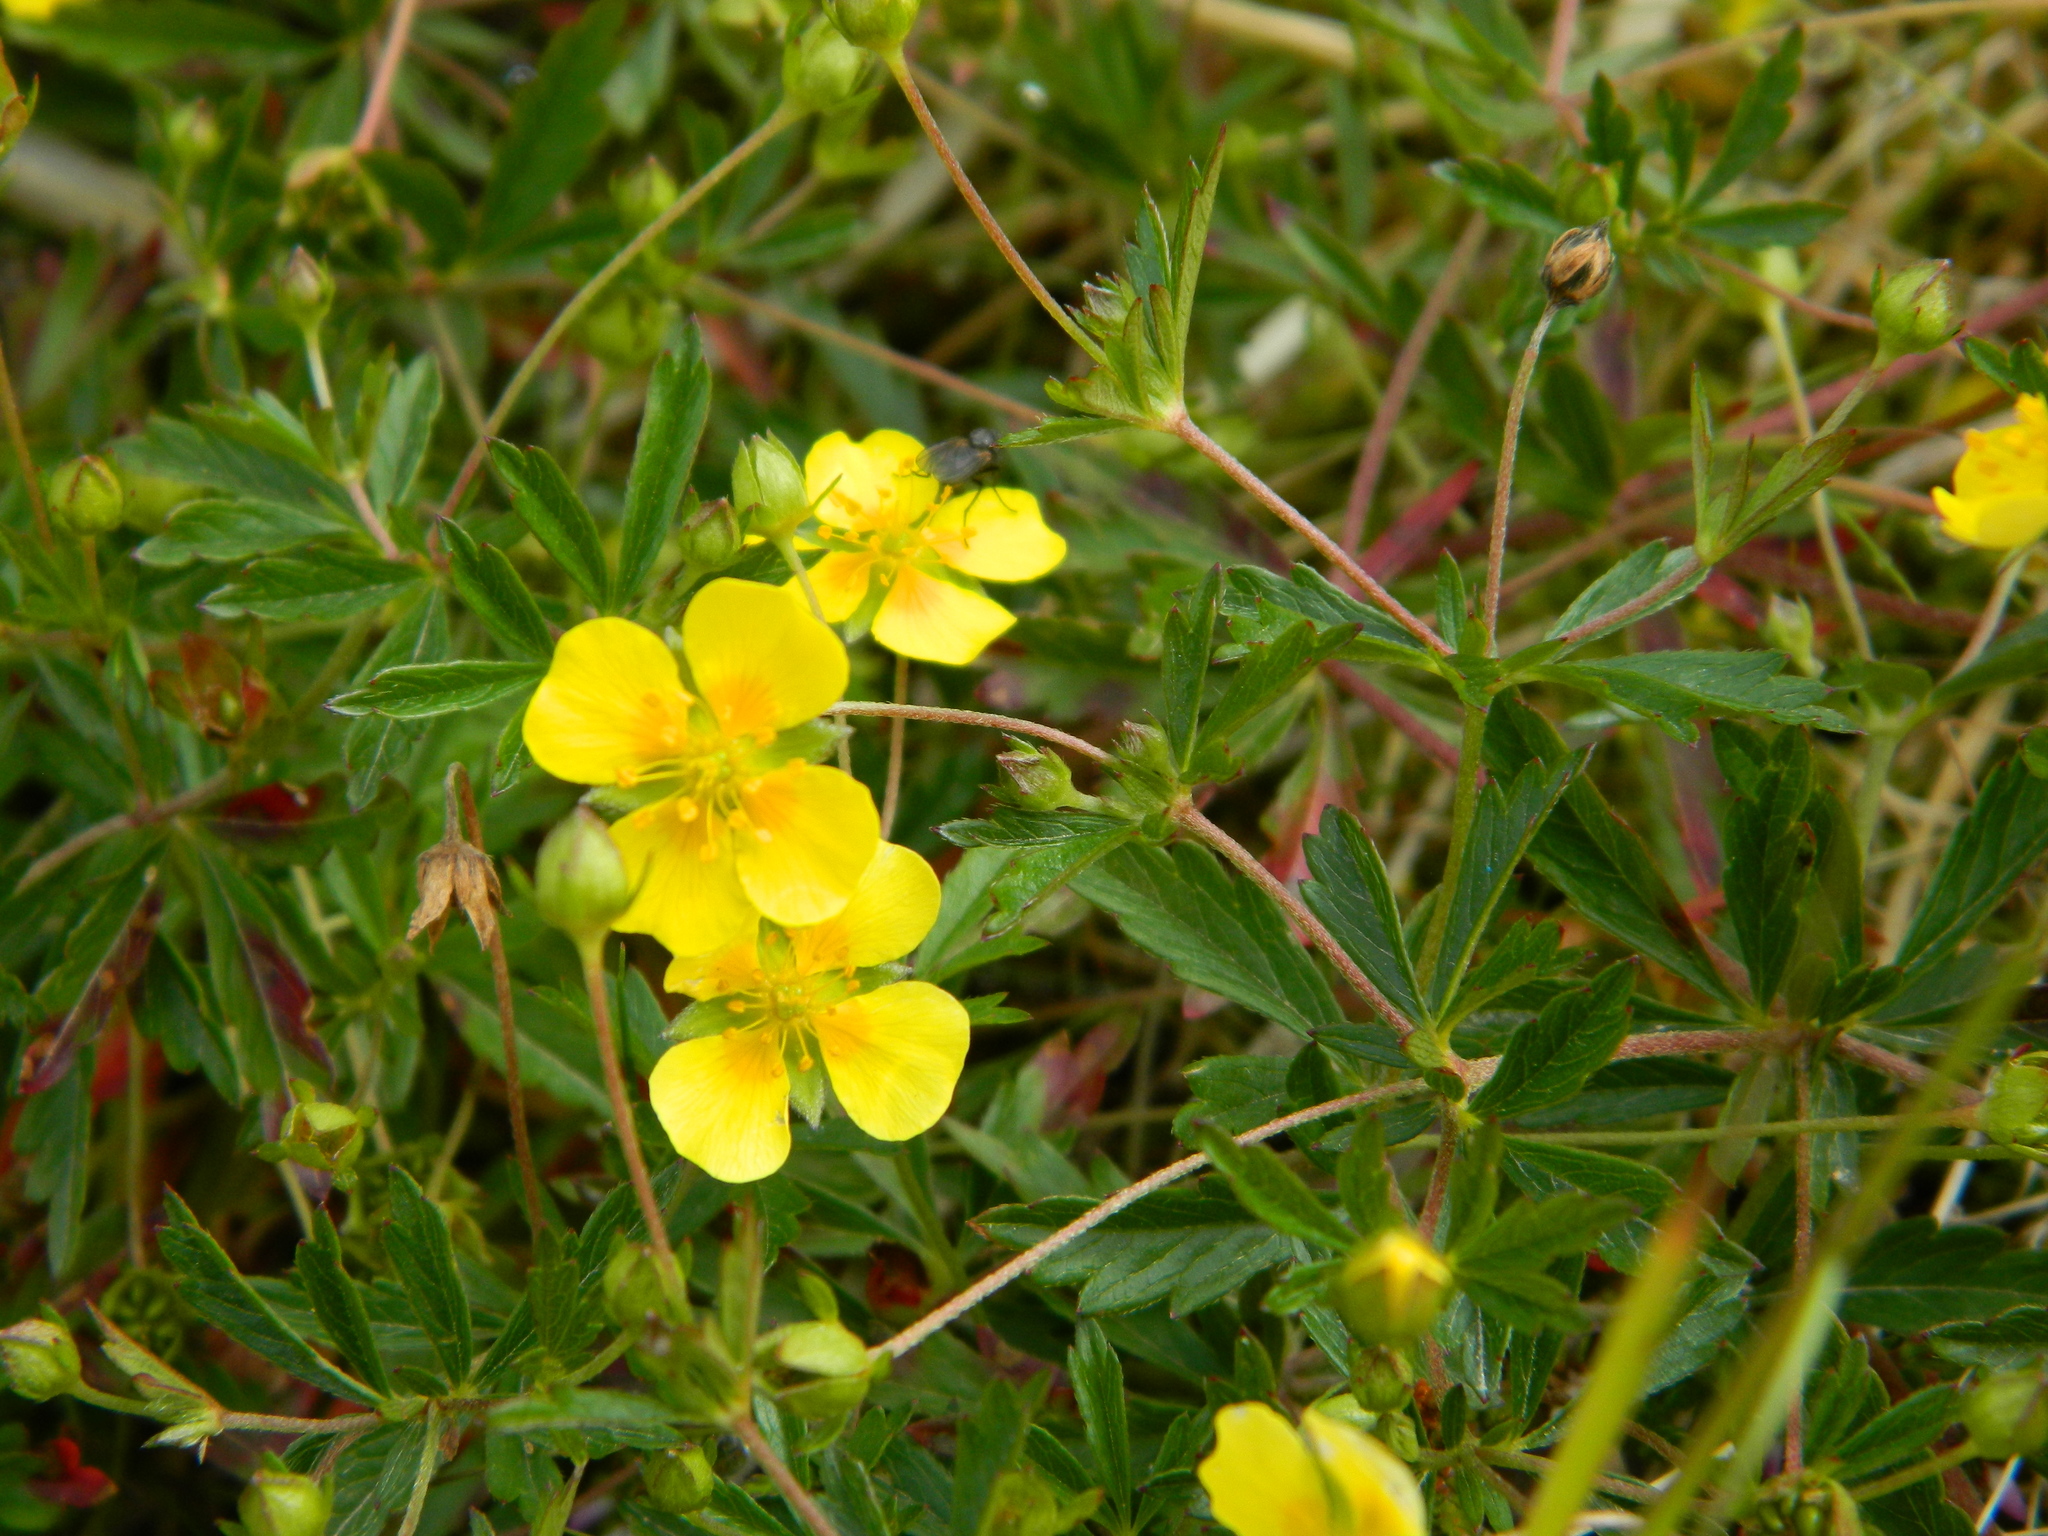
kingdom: Plantae
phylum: Tracheophyta
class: Magnoliopsida
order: Rosales
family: Rosaceae
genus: Potentilla
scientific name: Potentilla erecta
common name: Tormentil
